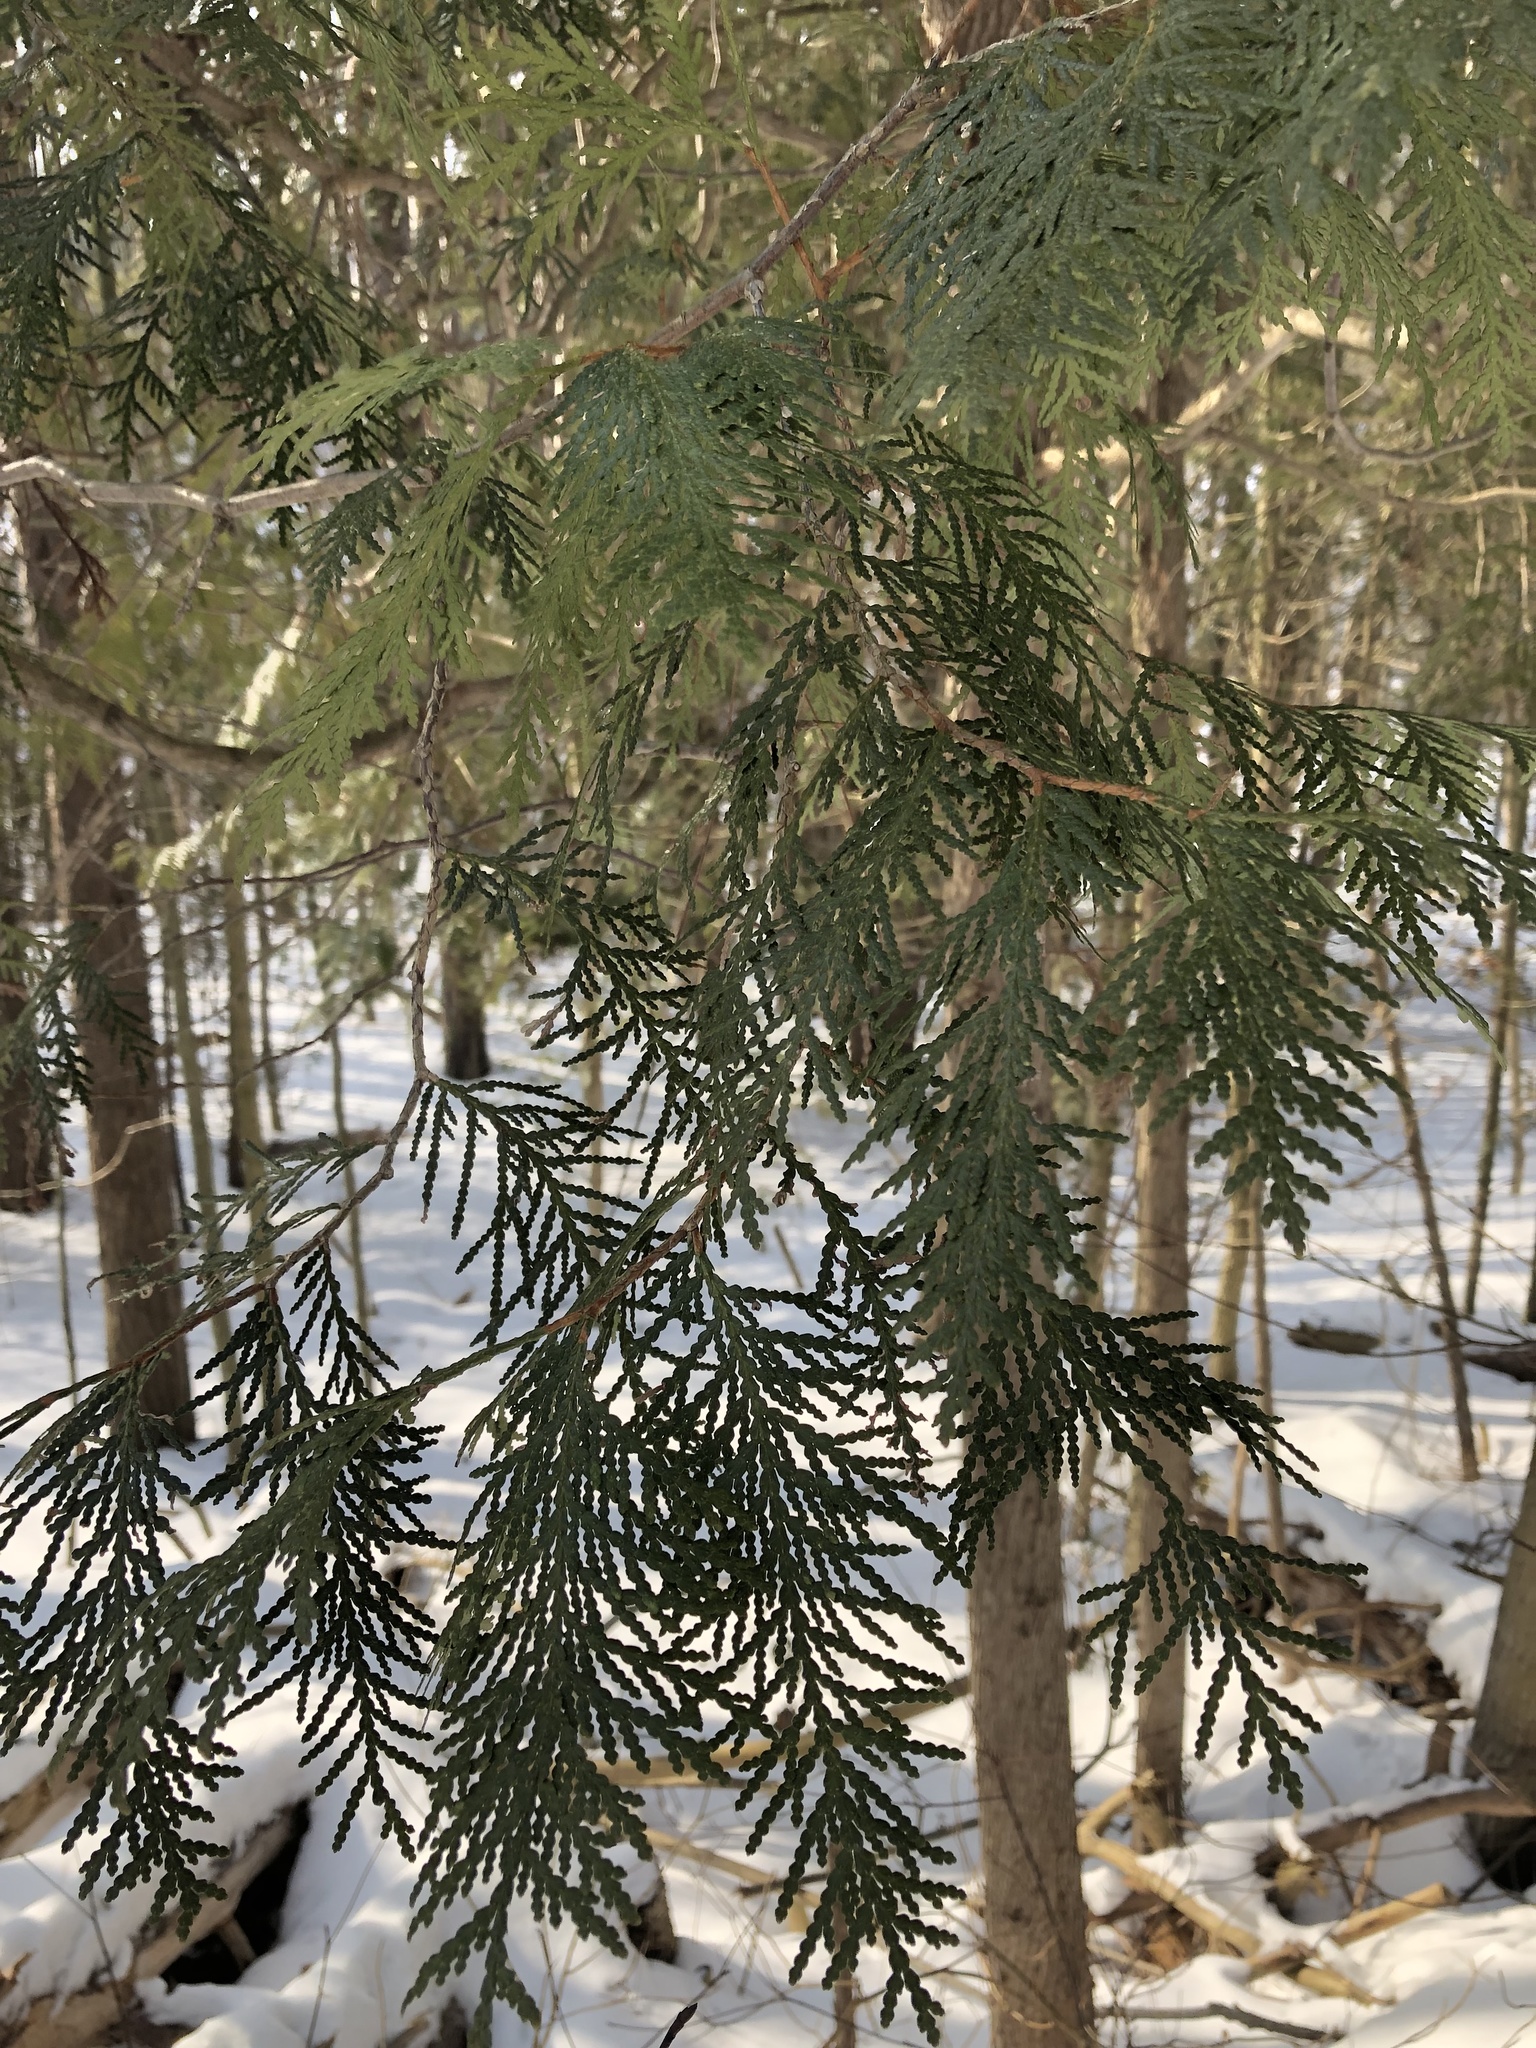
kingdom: Plantae
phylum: Tracheophyta
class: Pinopsida
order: Pinales
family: Cupressaceae
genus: Thuja
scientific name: Thuja occidentalis
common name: Northern white-cedar
